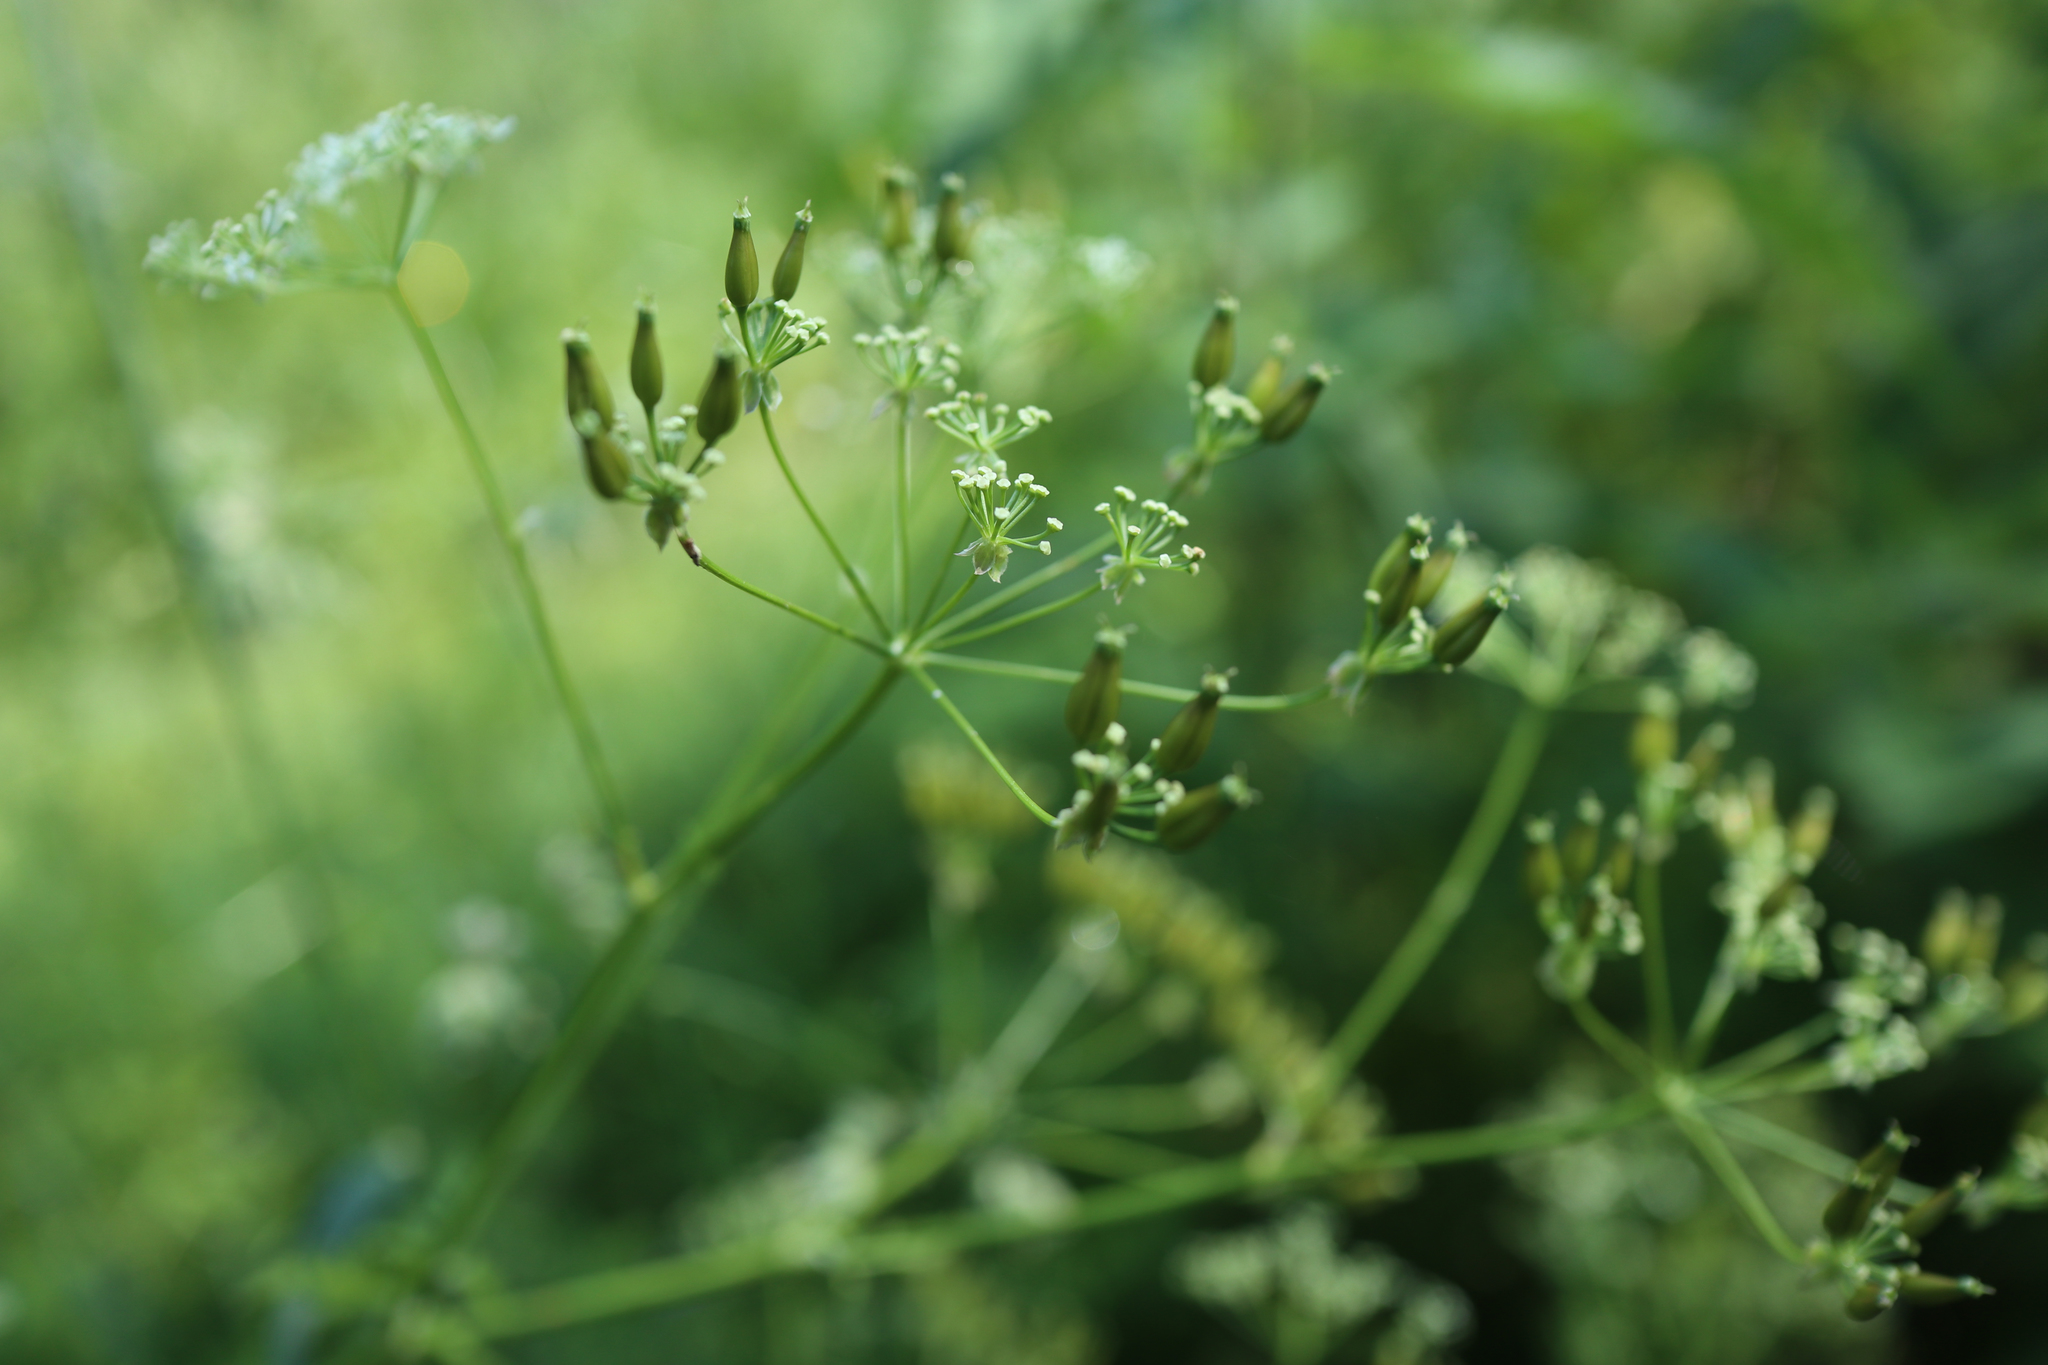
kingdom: Plantae
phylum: Tracheophyta
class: Magnoliopsida
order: Apiales
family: Apiaceae
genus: Anthriscus
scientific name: Anthriscus sylvestris
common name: Cow parsley
